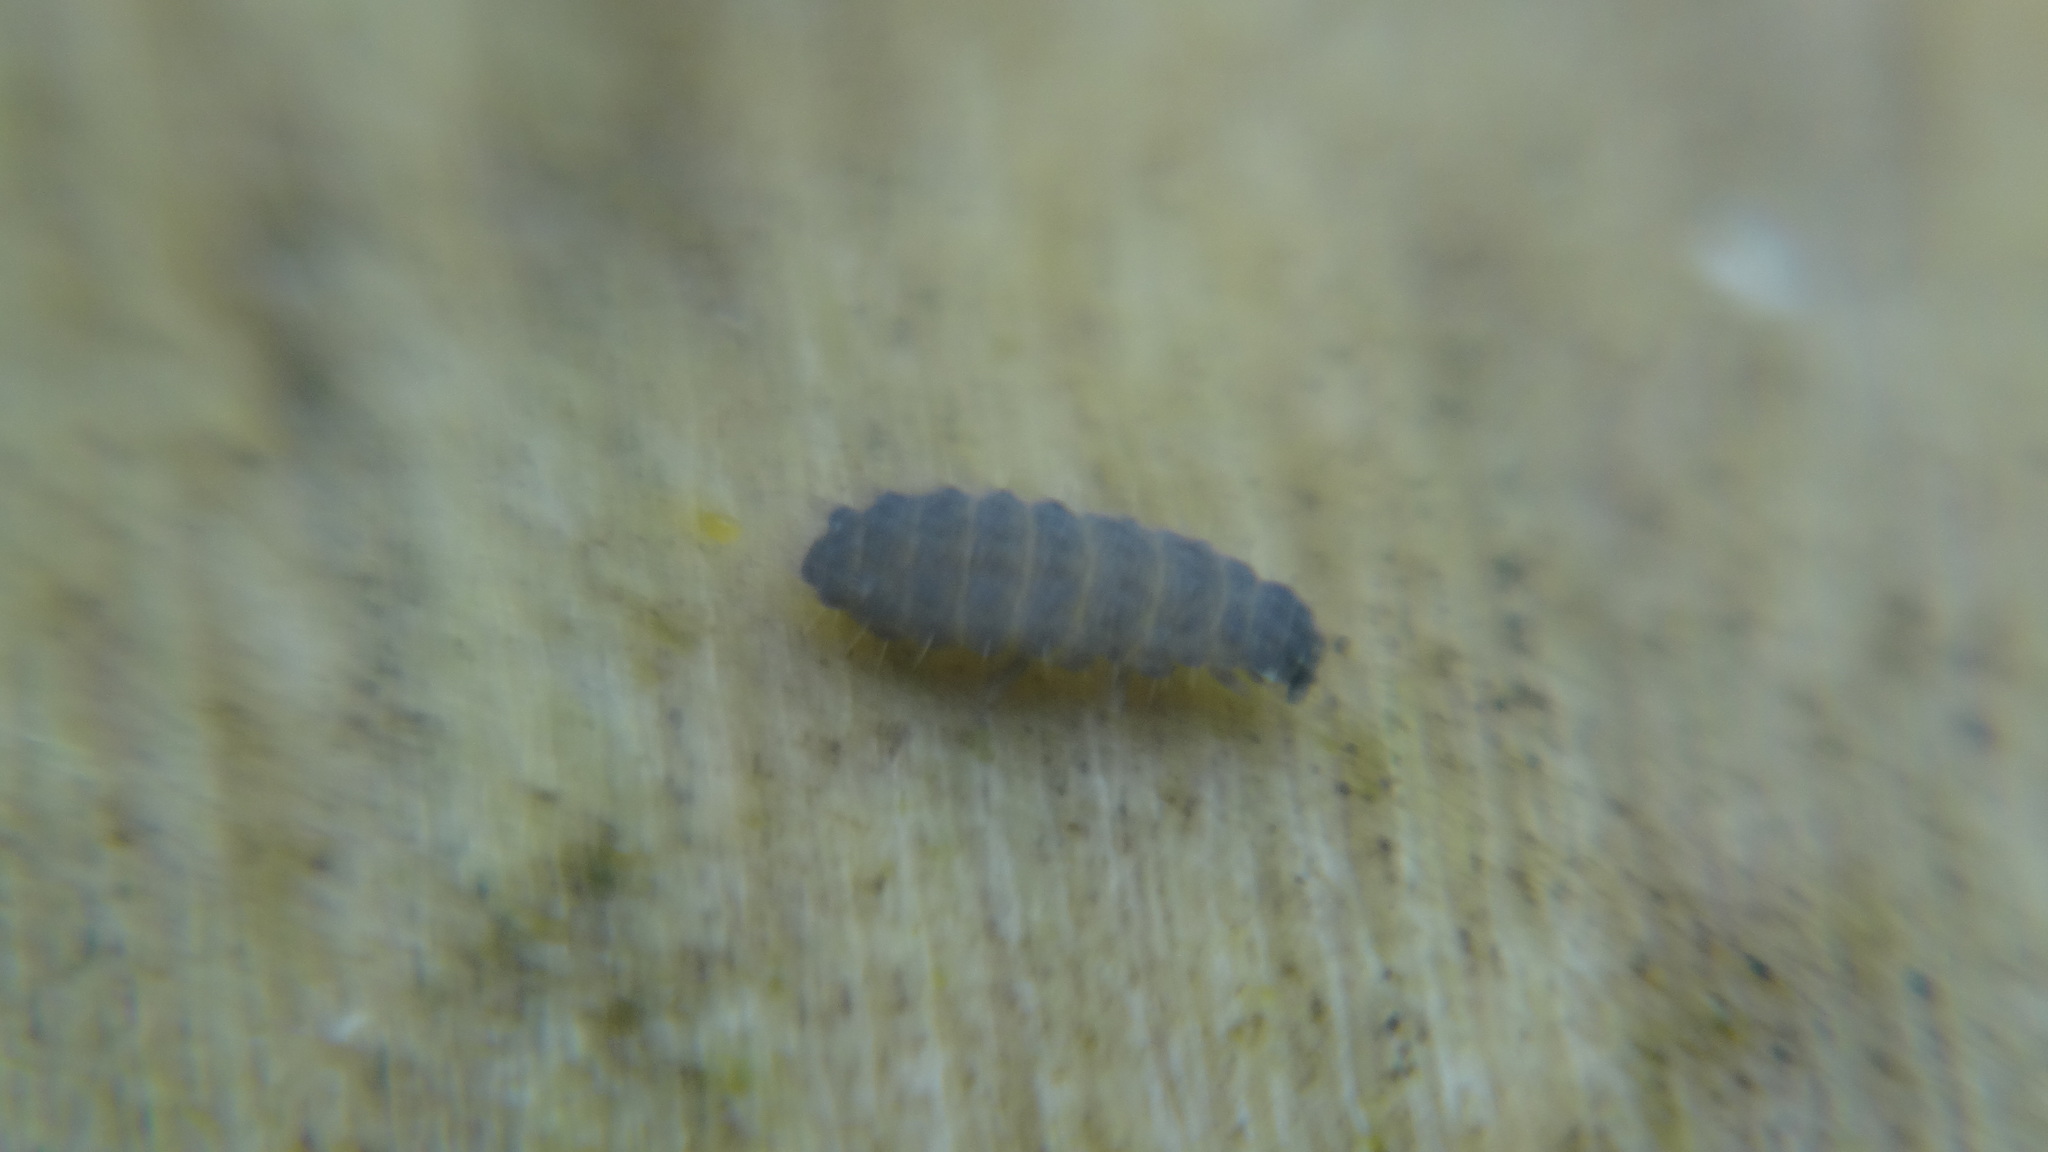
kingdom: Animalia
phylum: Arthropoda
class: Collembola
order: Poduromorpha
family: Neanuridae
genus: Neanura
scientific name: Neanura muscorum
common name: Springtail
